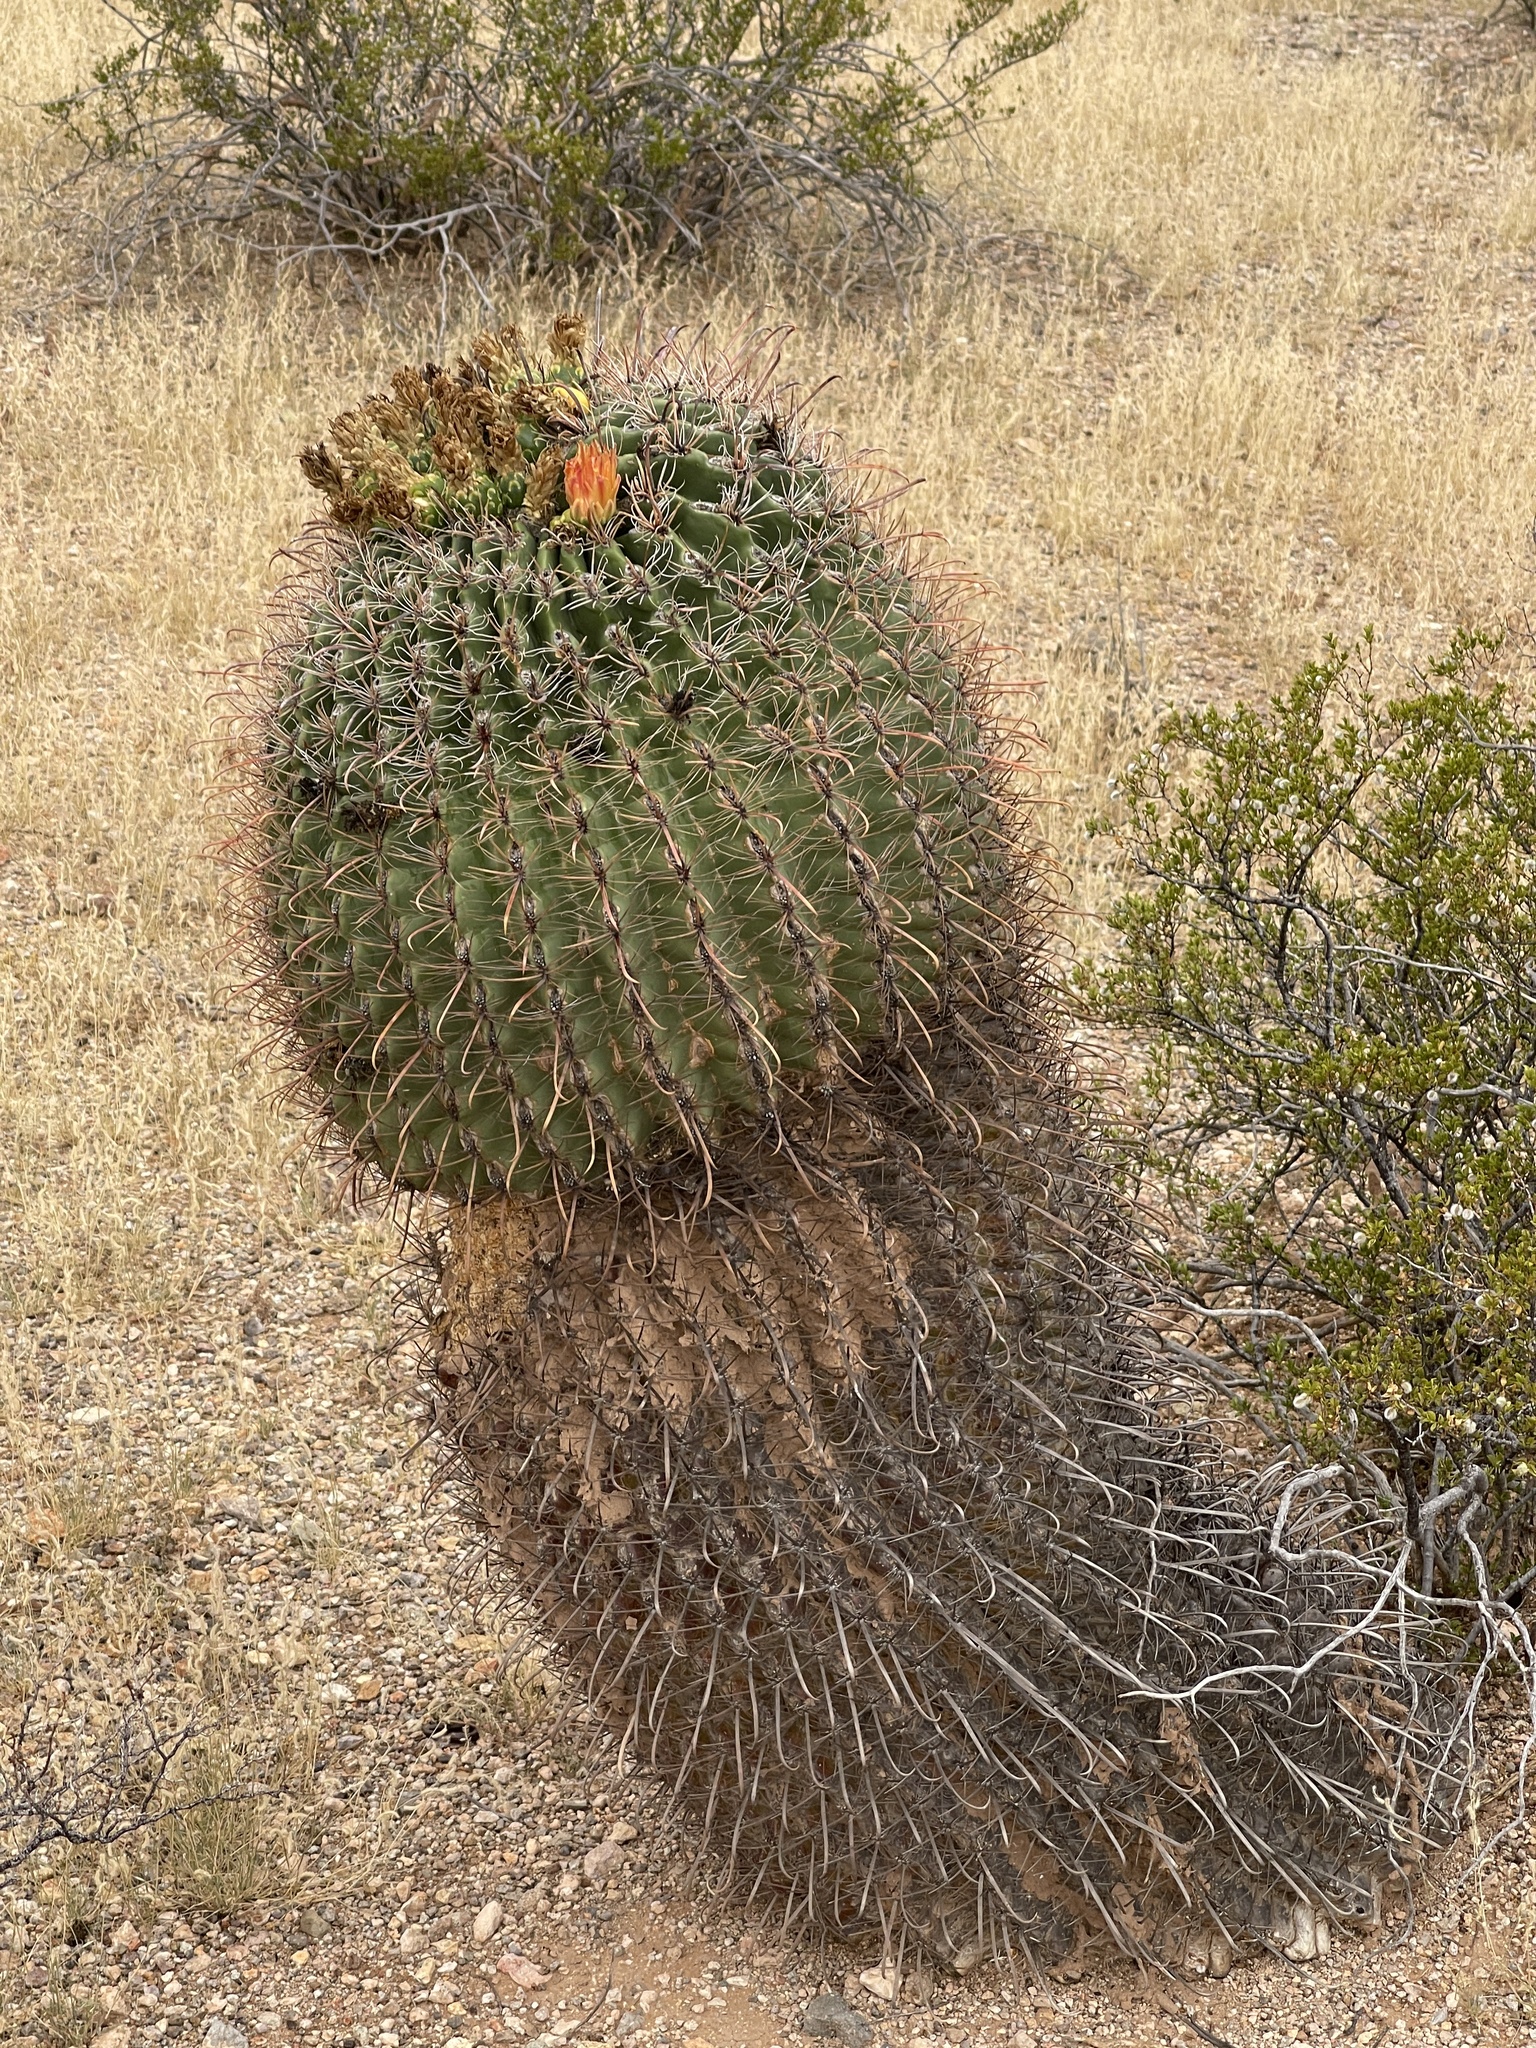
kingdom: Plantae
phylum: Tracheophyta
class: Magnoliopsida
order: Caryophyllales
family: Cactaceae
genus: Ferocactus
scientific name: Ferocactus wislizeni
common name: Candy barrel cactus
